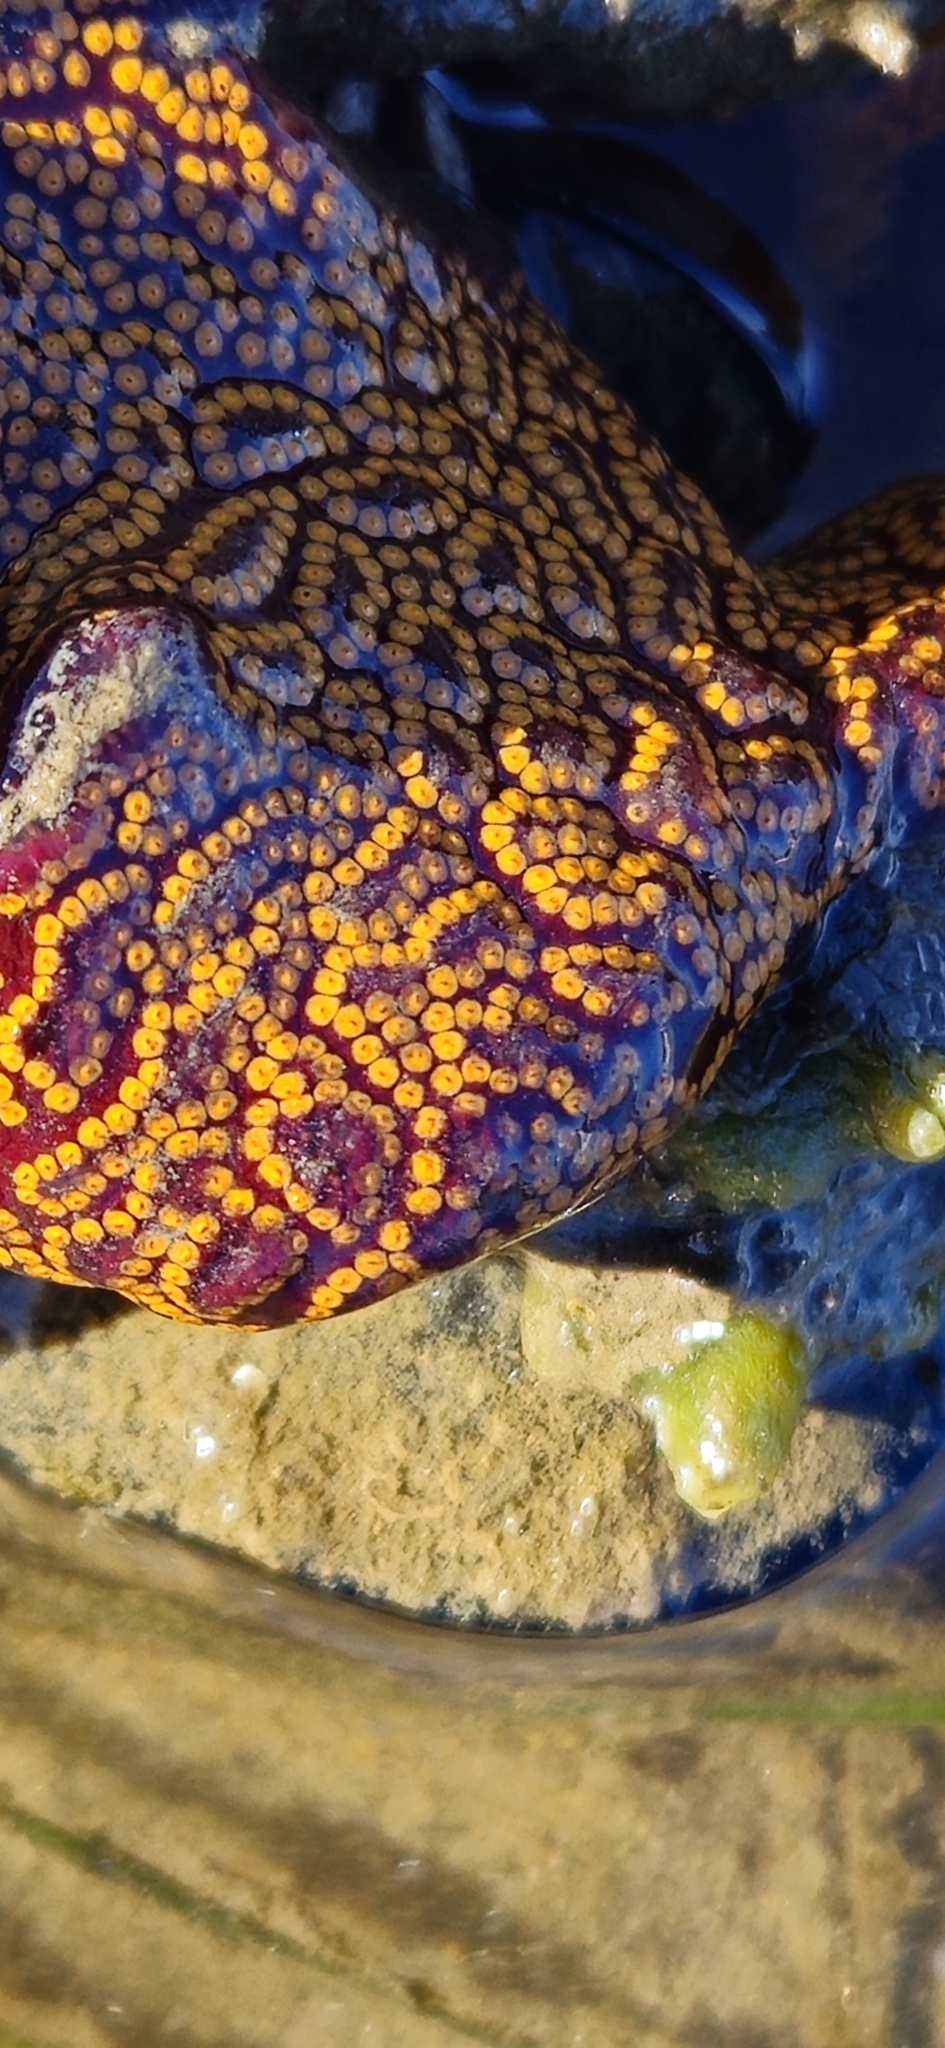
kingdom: Animalia
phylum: Chordata
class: Ascidiacea
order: Stolidobranchia
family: Styelidae
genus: Botrylloides
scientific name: Botrylloides diegensis
